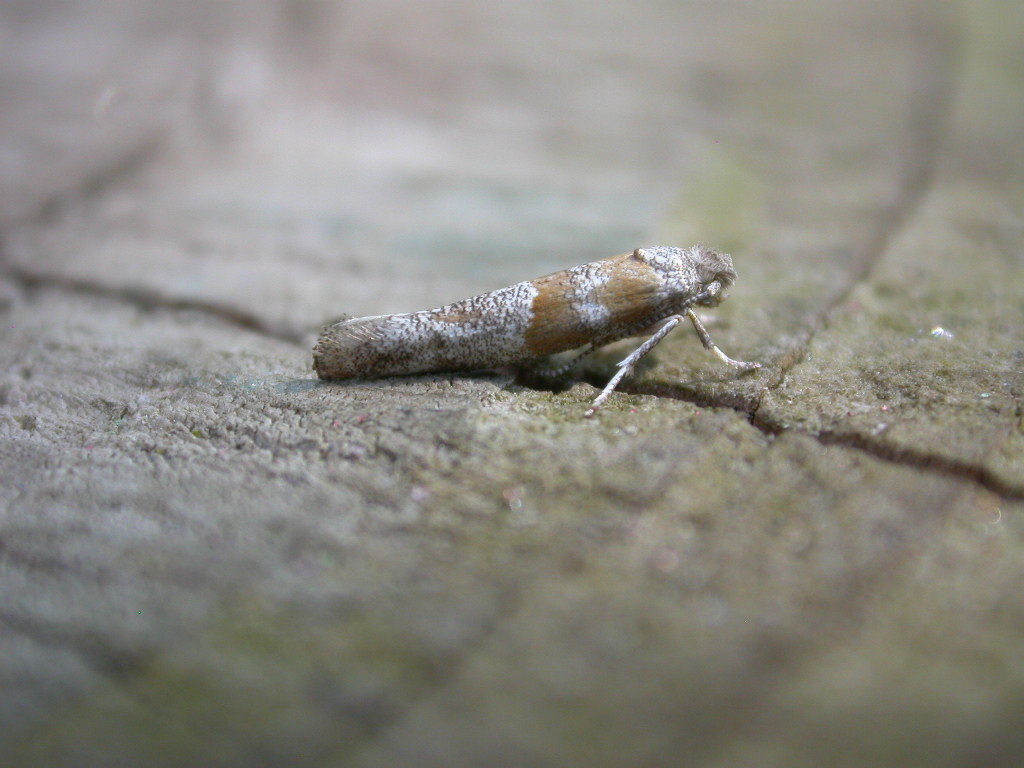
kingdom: Animalia
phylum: Arthropoda
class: Insecta
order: Lepidoptera
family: Yponomeutidae
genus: Cedestis
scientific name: Cedestis gysseleniella
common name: Gold pine ermel
